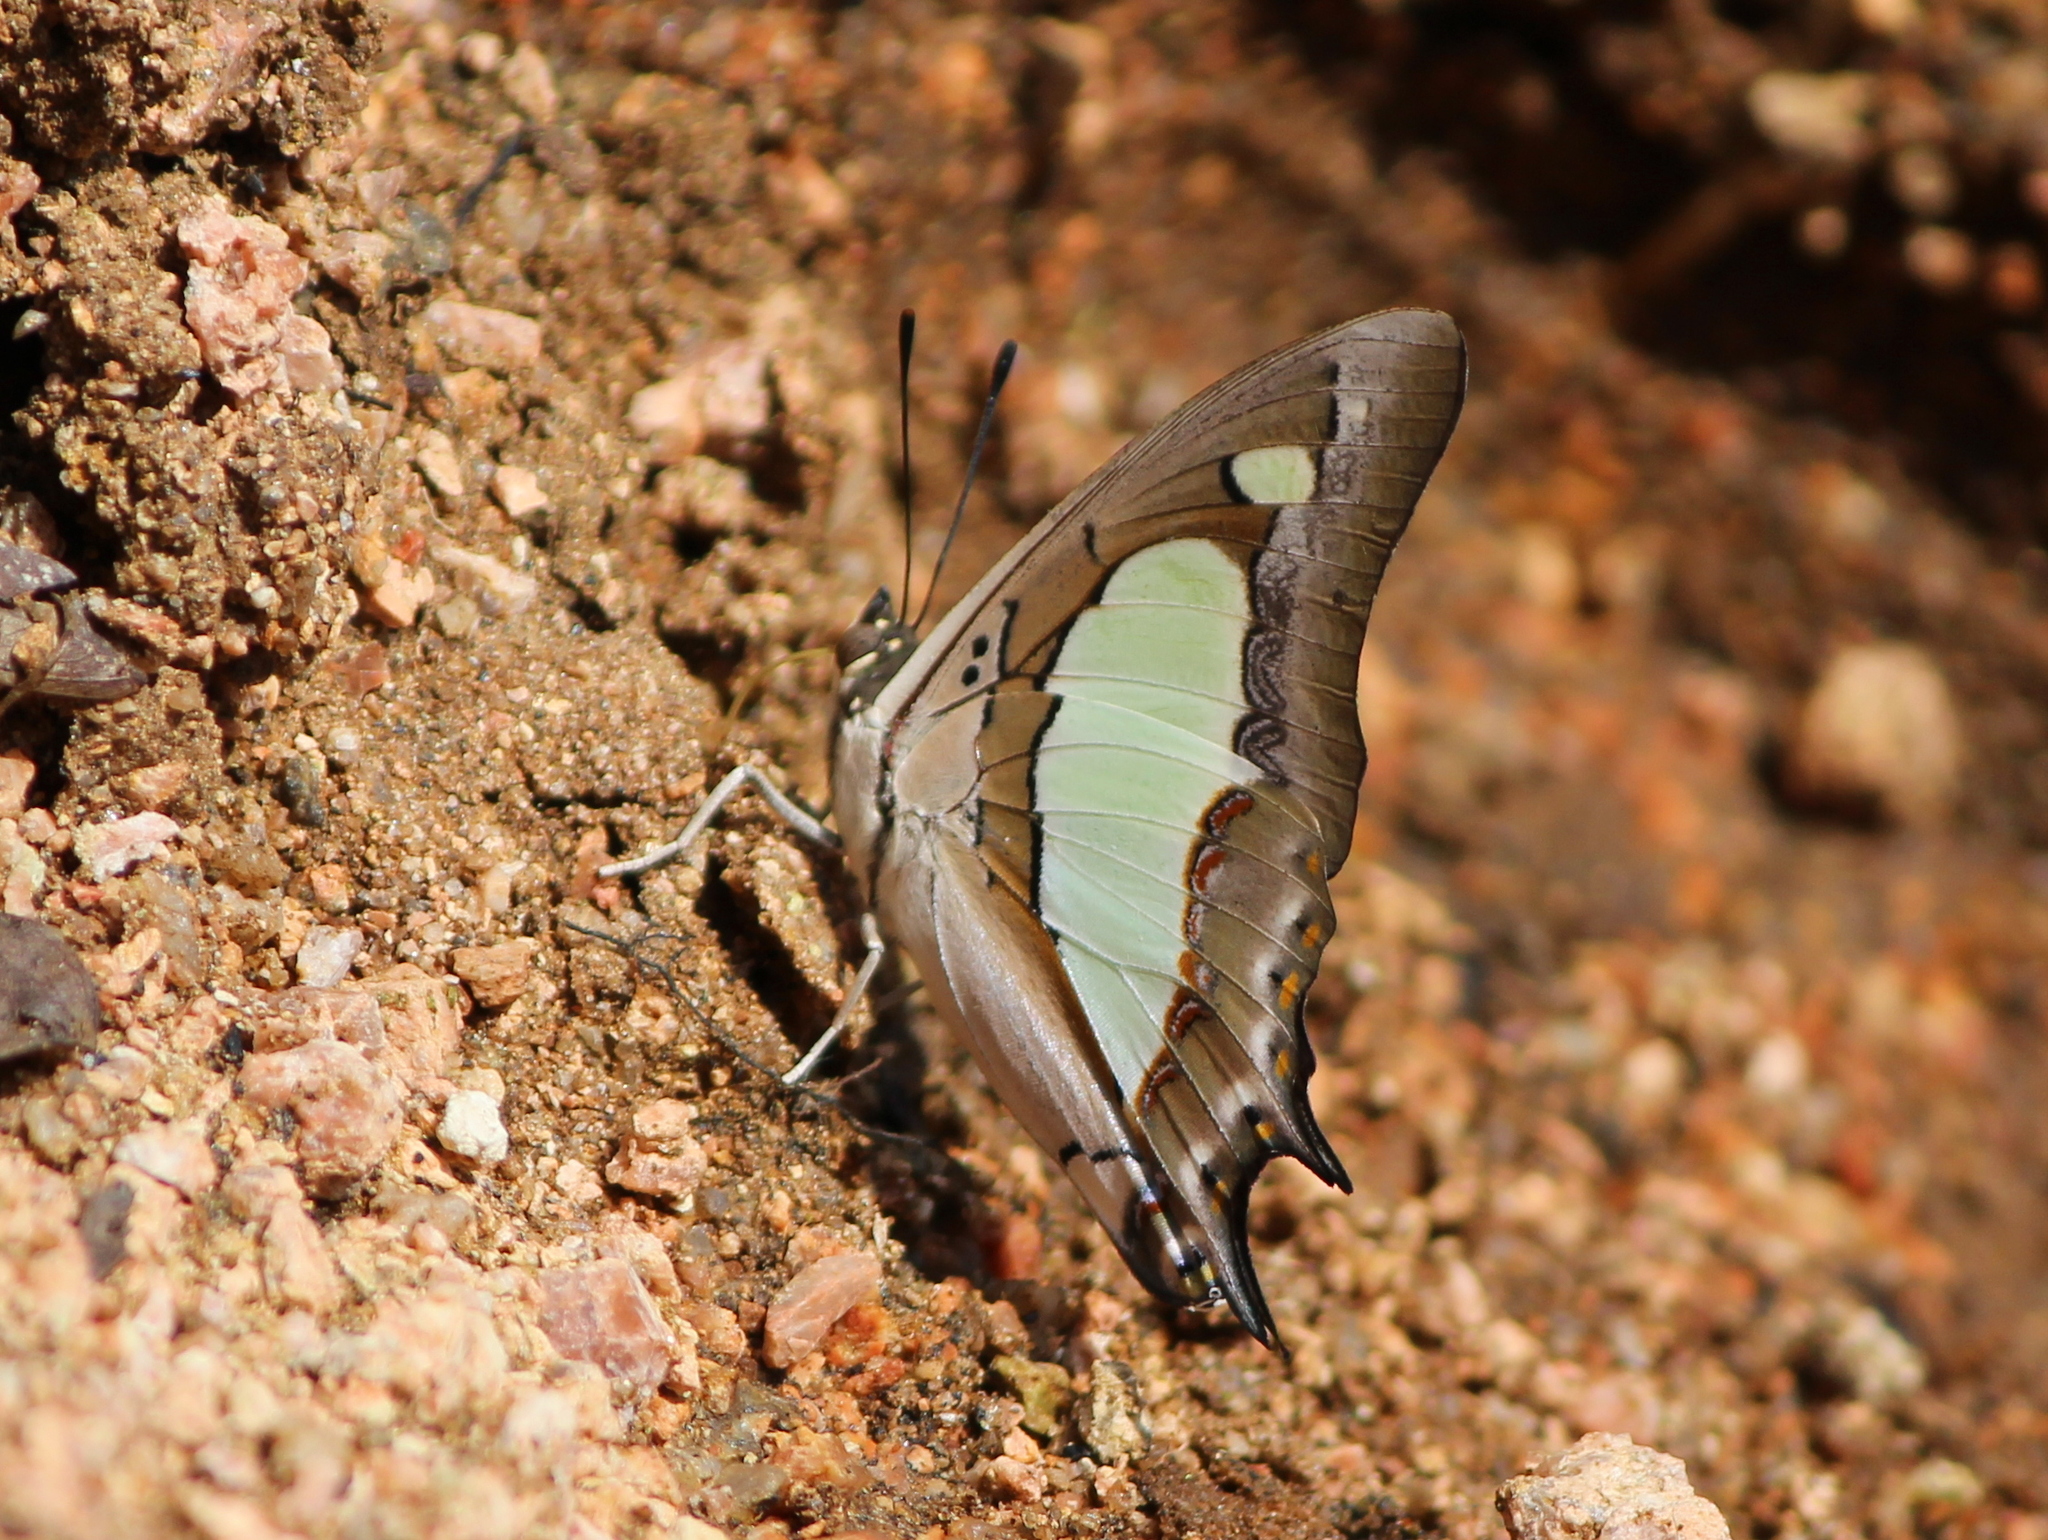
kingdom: Animalia
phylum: Arthropoda
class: Insecta
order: Lepidoptera
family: Nymphalidae
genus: Polyura
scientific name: Polyura agrarius
